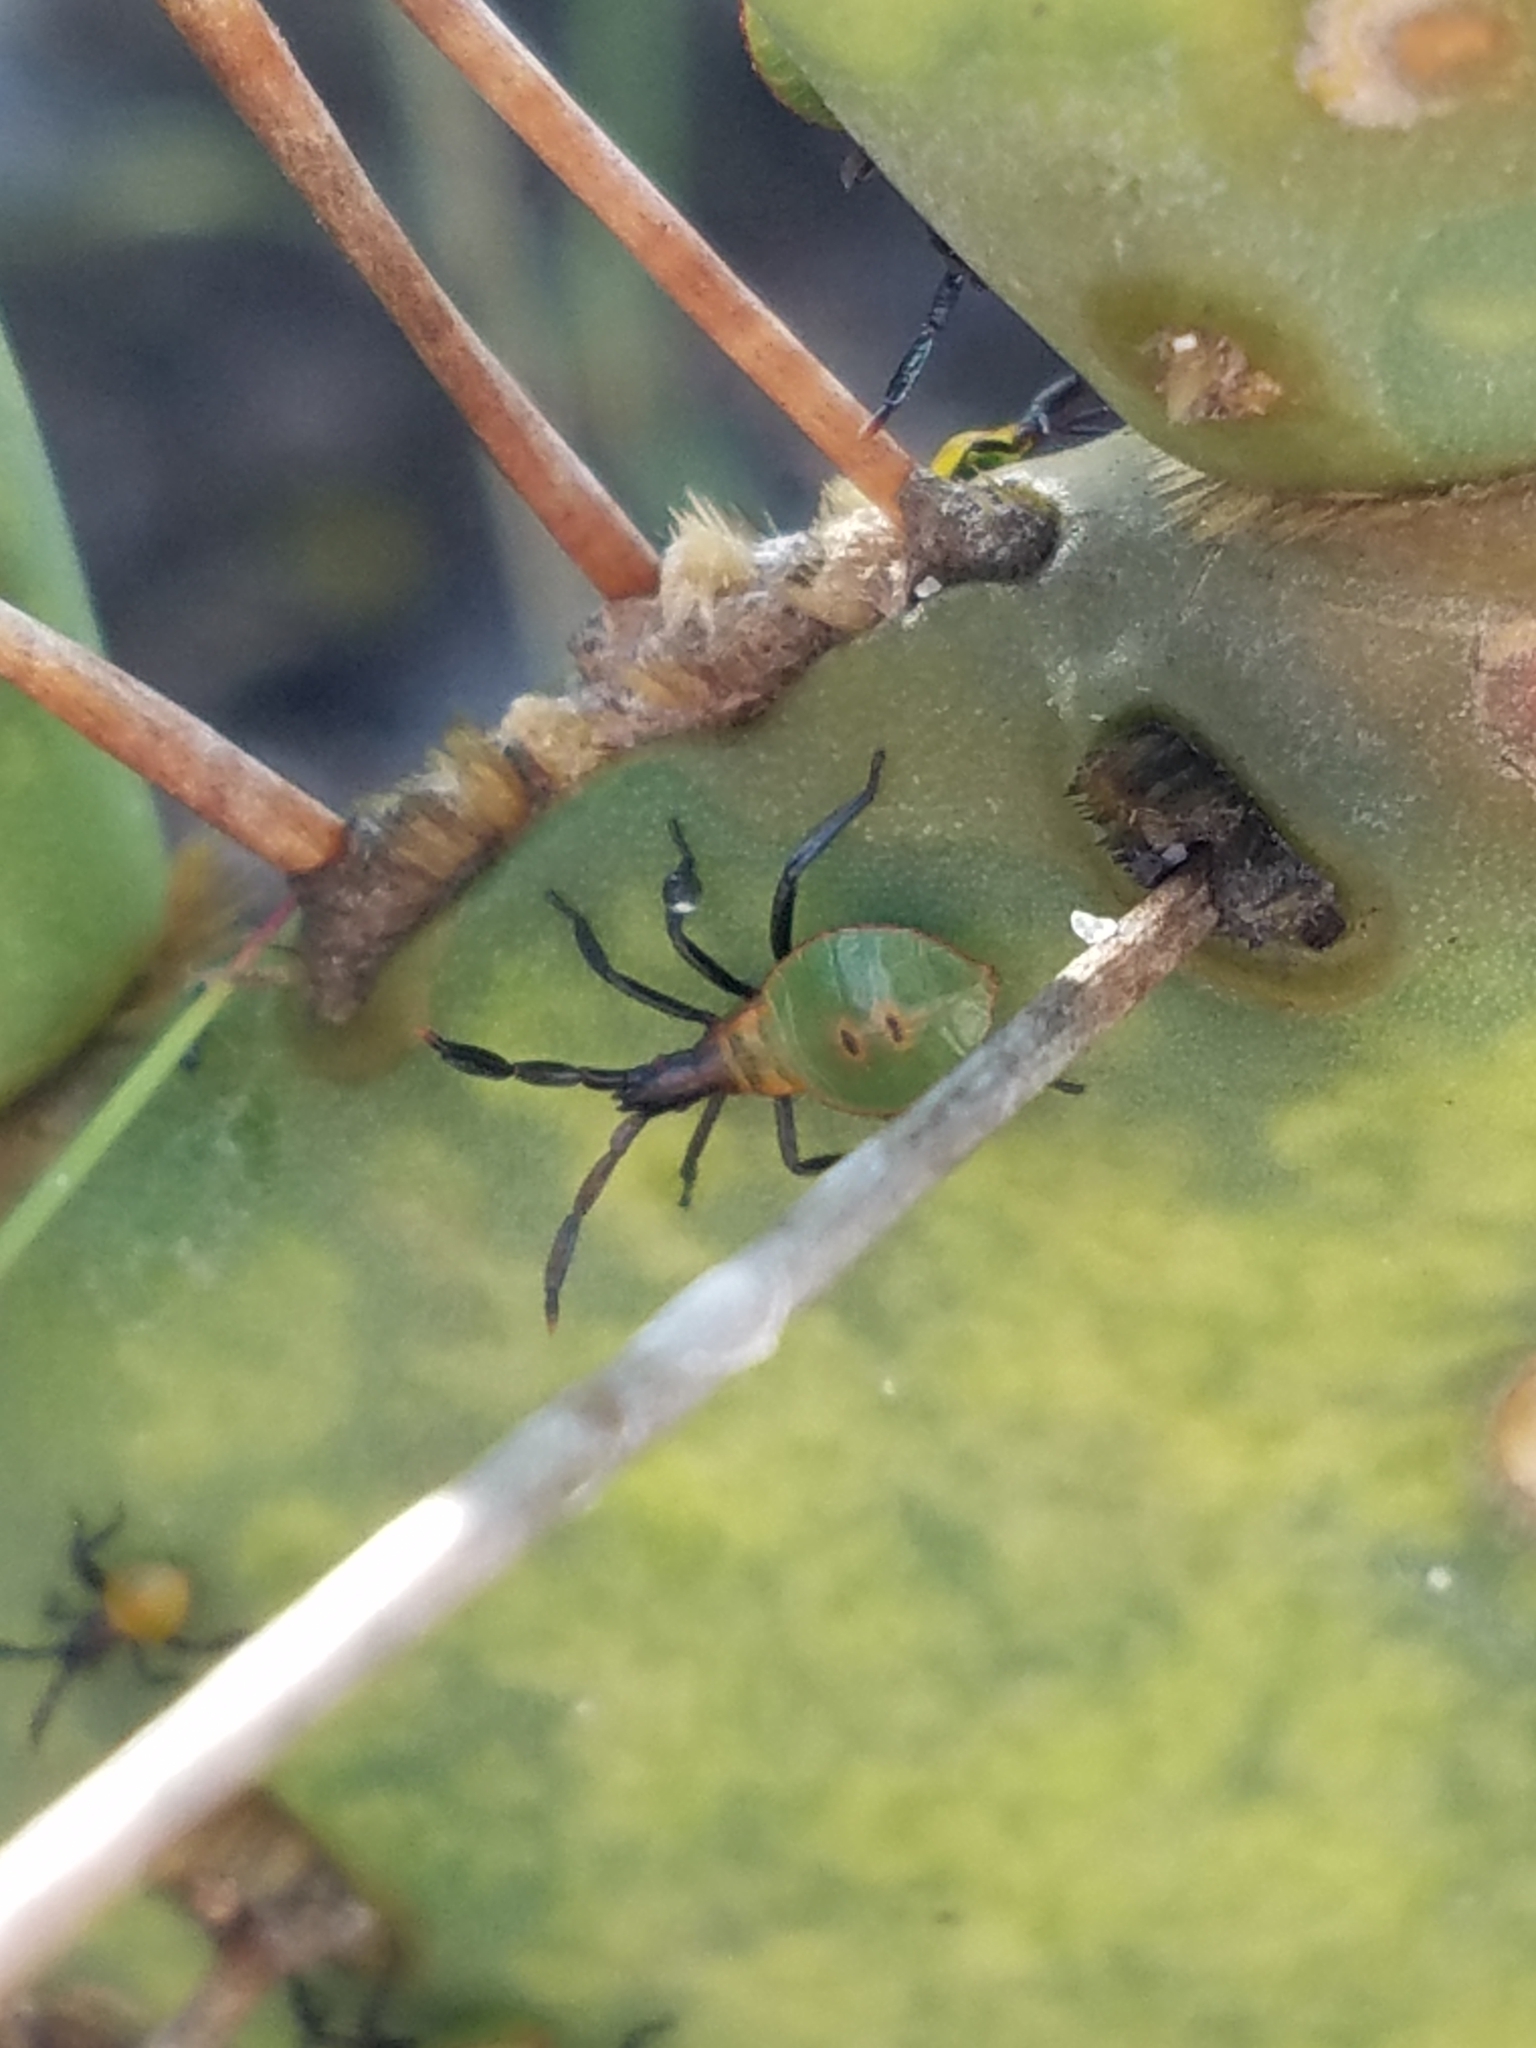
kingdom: Animalia
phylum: Arthropoda
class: Insecta
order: Hemiptera
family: Coreidae
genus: Chelinidea
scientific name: Chelinidea vittiger
